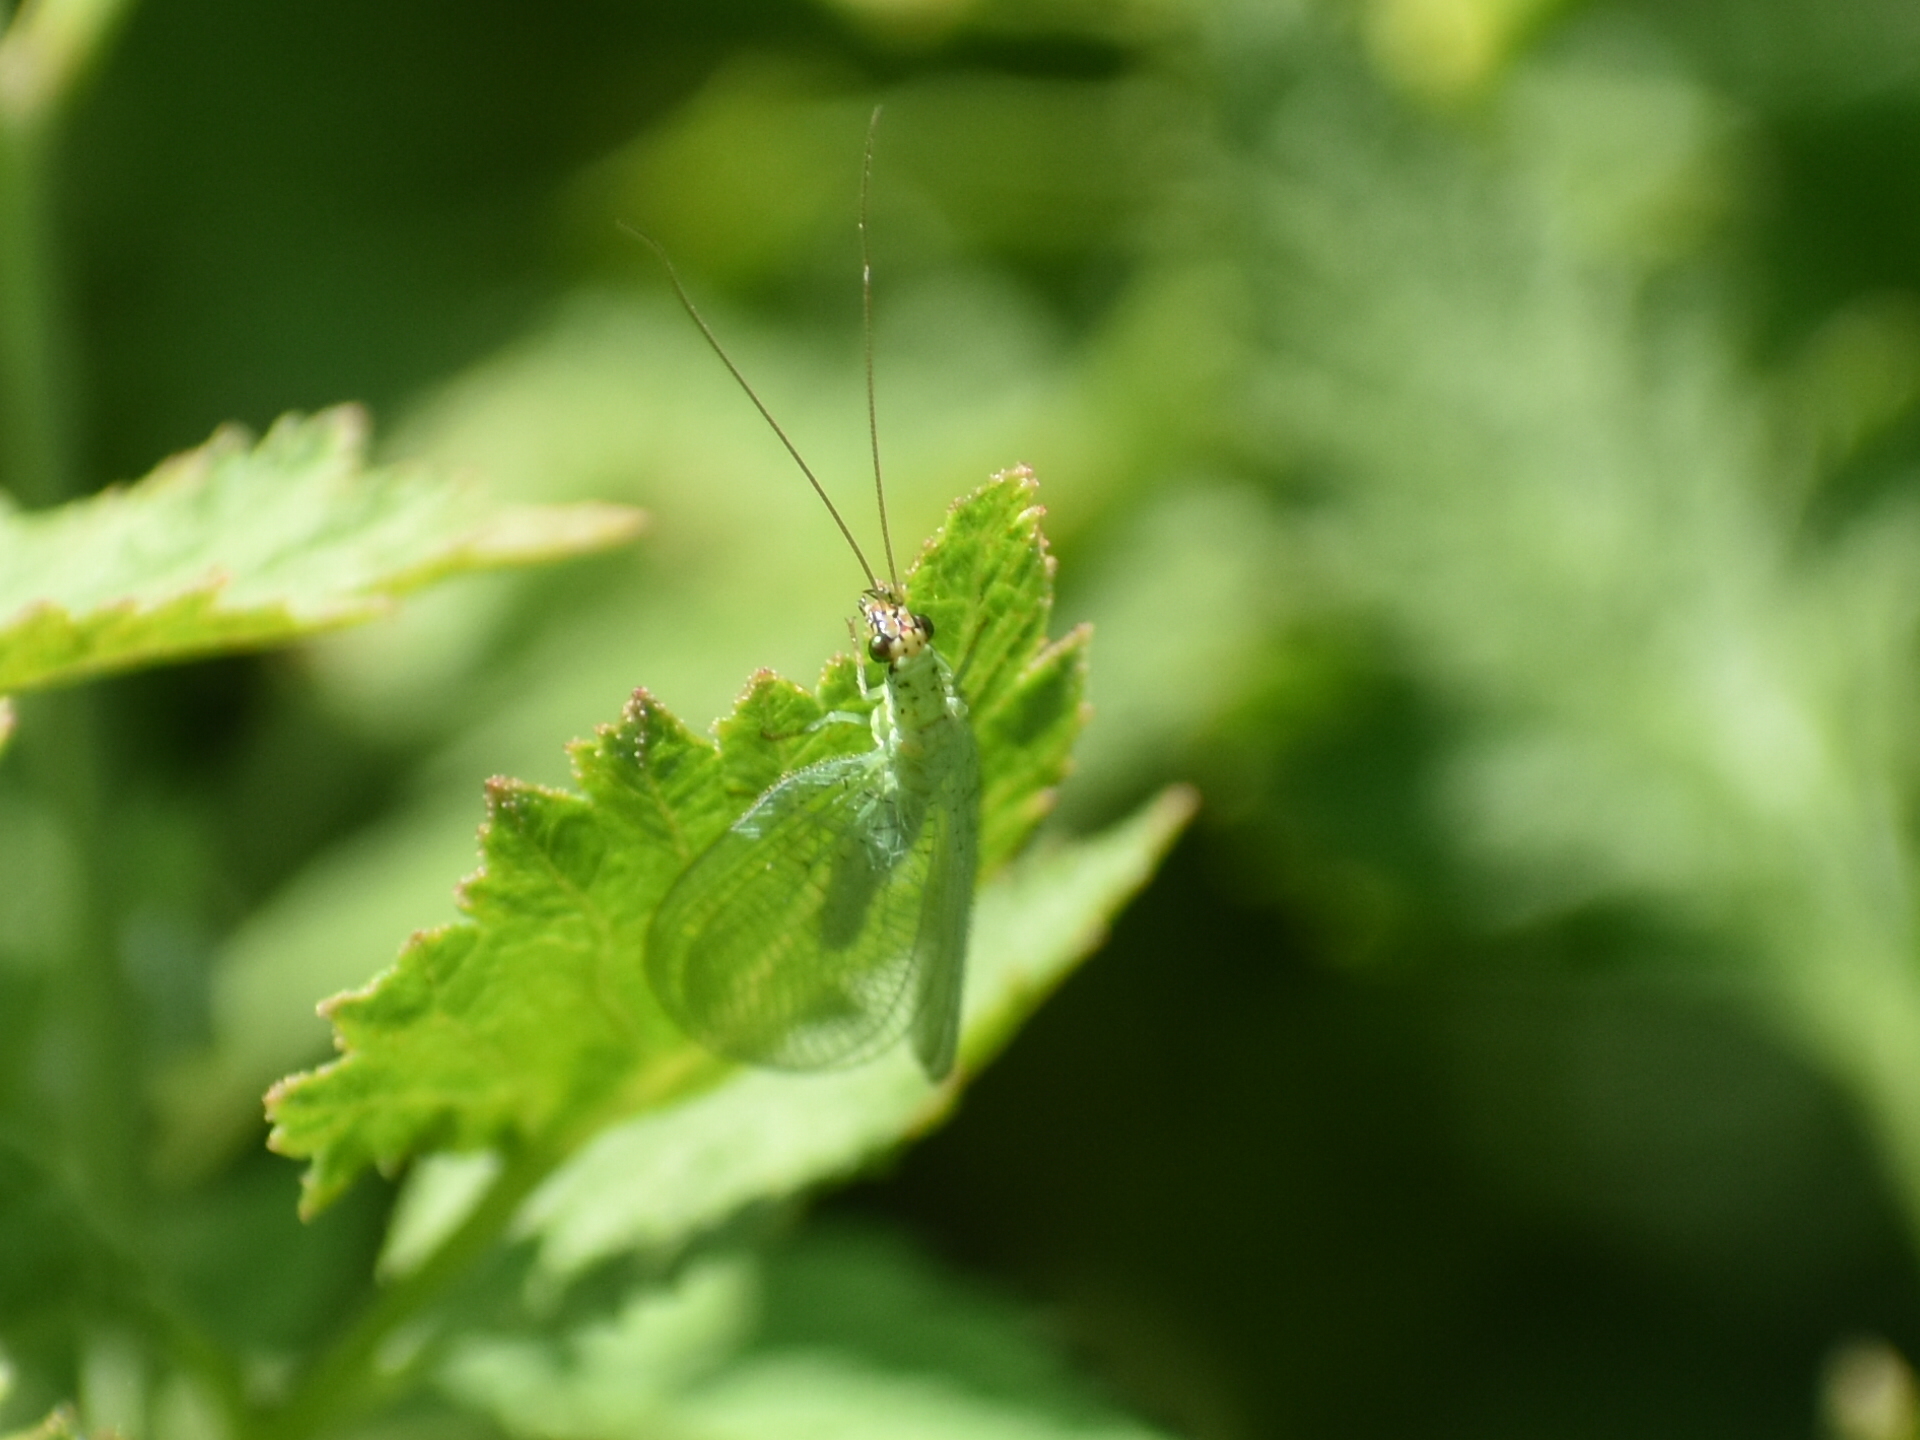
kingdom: Animalia
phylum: Arthropoda
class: Insecta
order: Neuroptera
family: Chrysopidae
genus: Chrysopa
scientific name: Chrysopa oculata
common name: Golden-eyed lacewing
